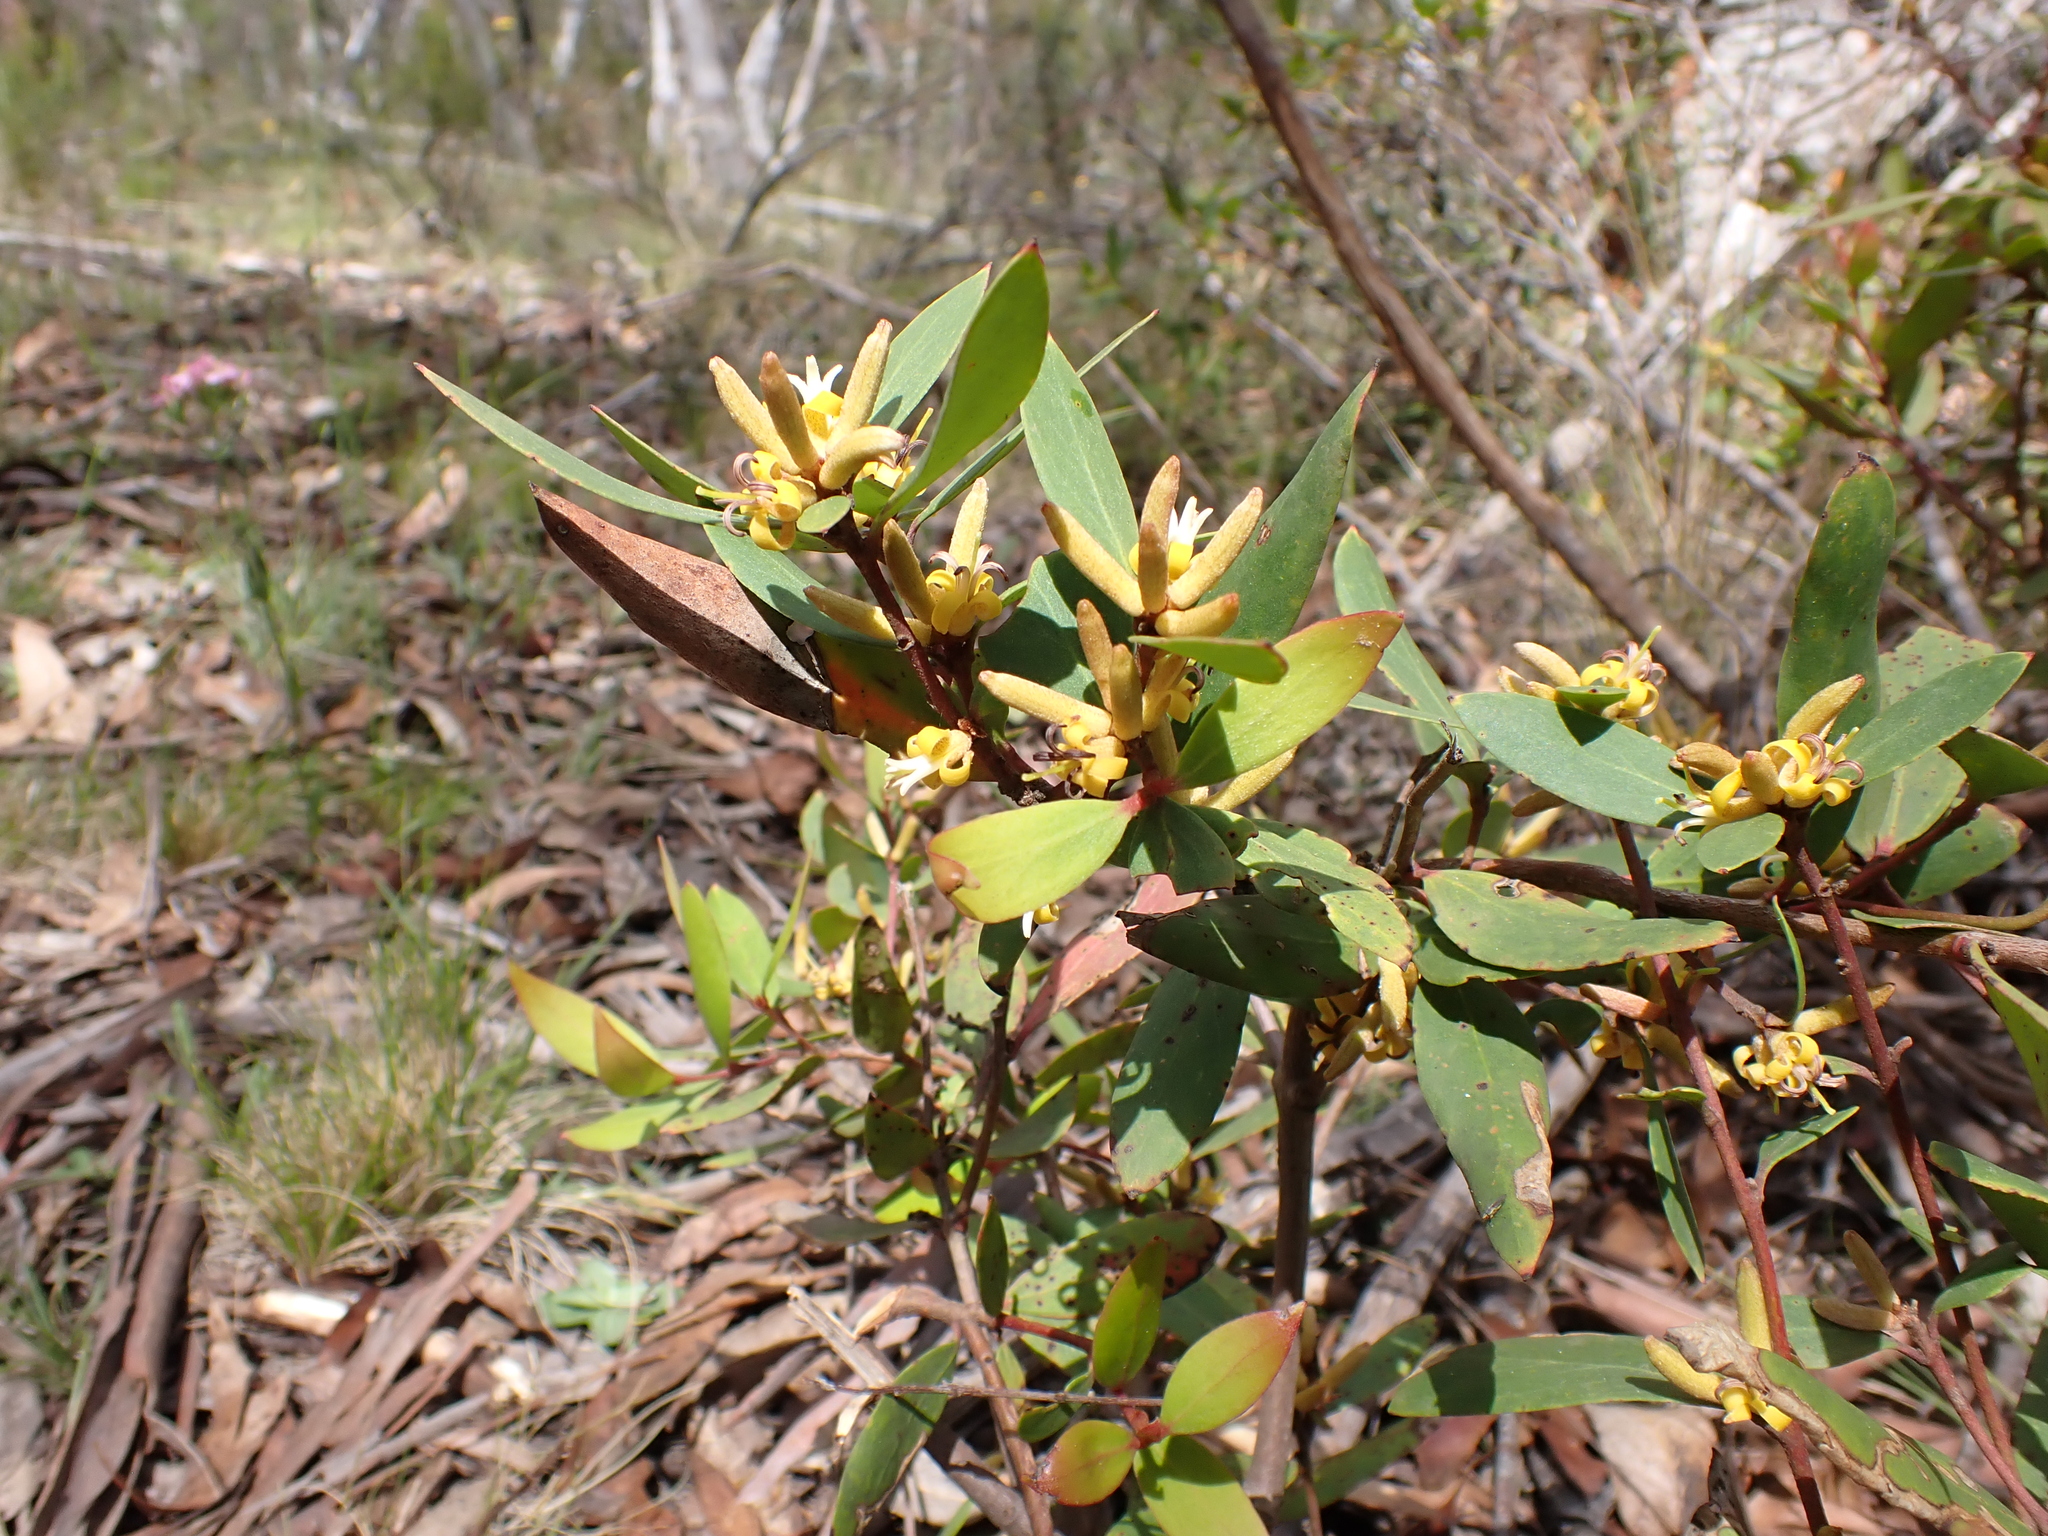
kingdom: Plantae
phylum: Tracheophyta
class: Magnoliopsida
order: Proteales
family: Proteaceae
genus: Persoonia
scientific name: Persoonia confertifolia
